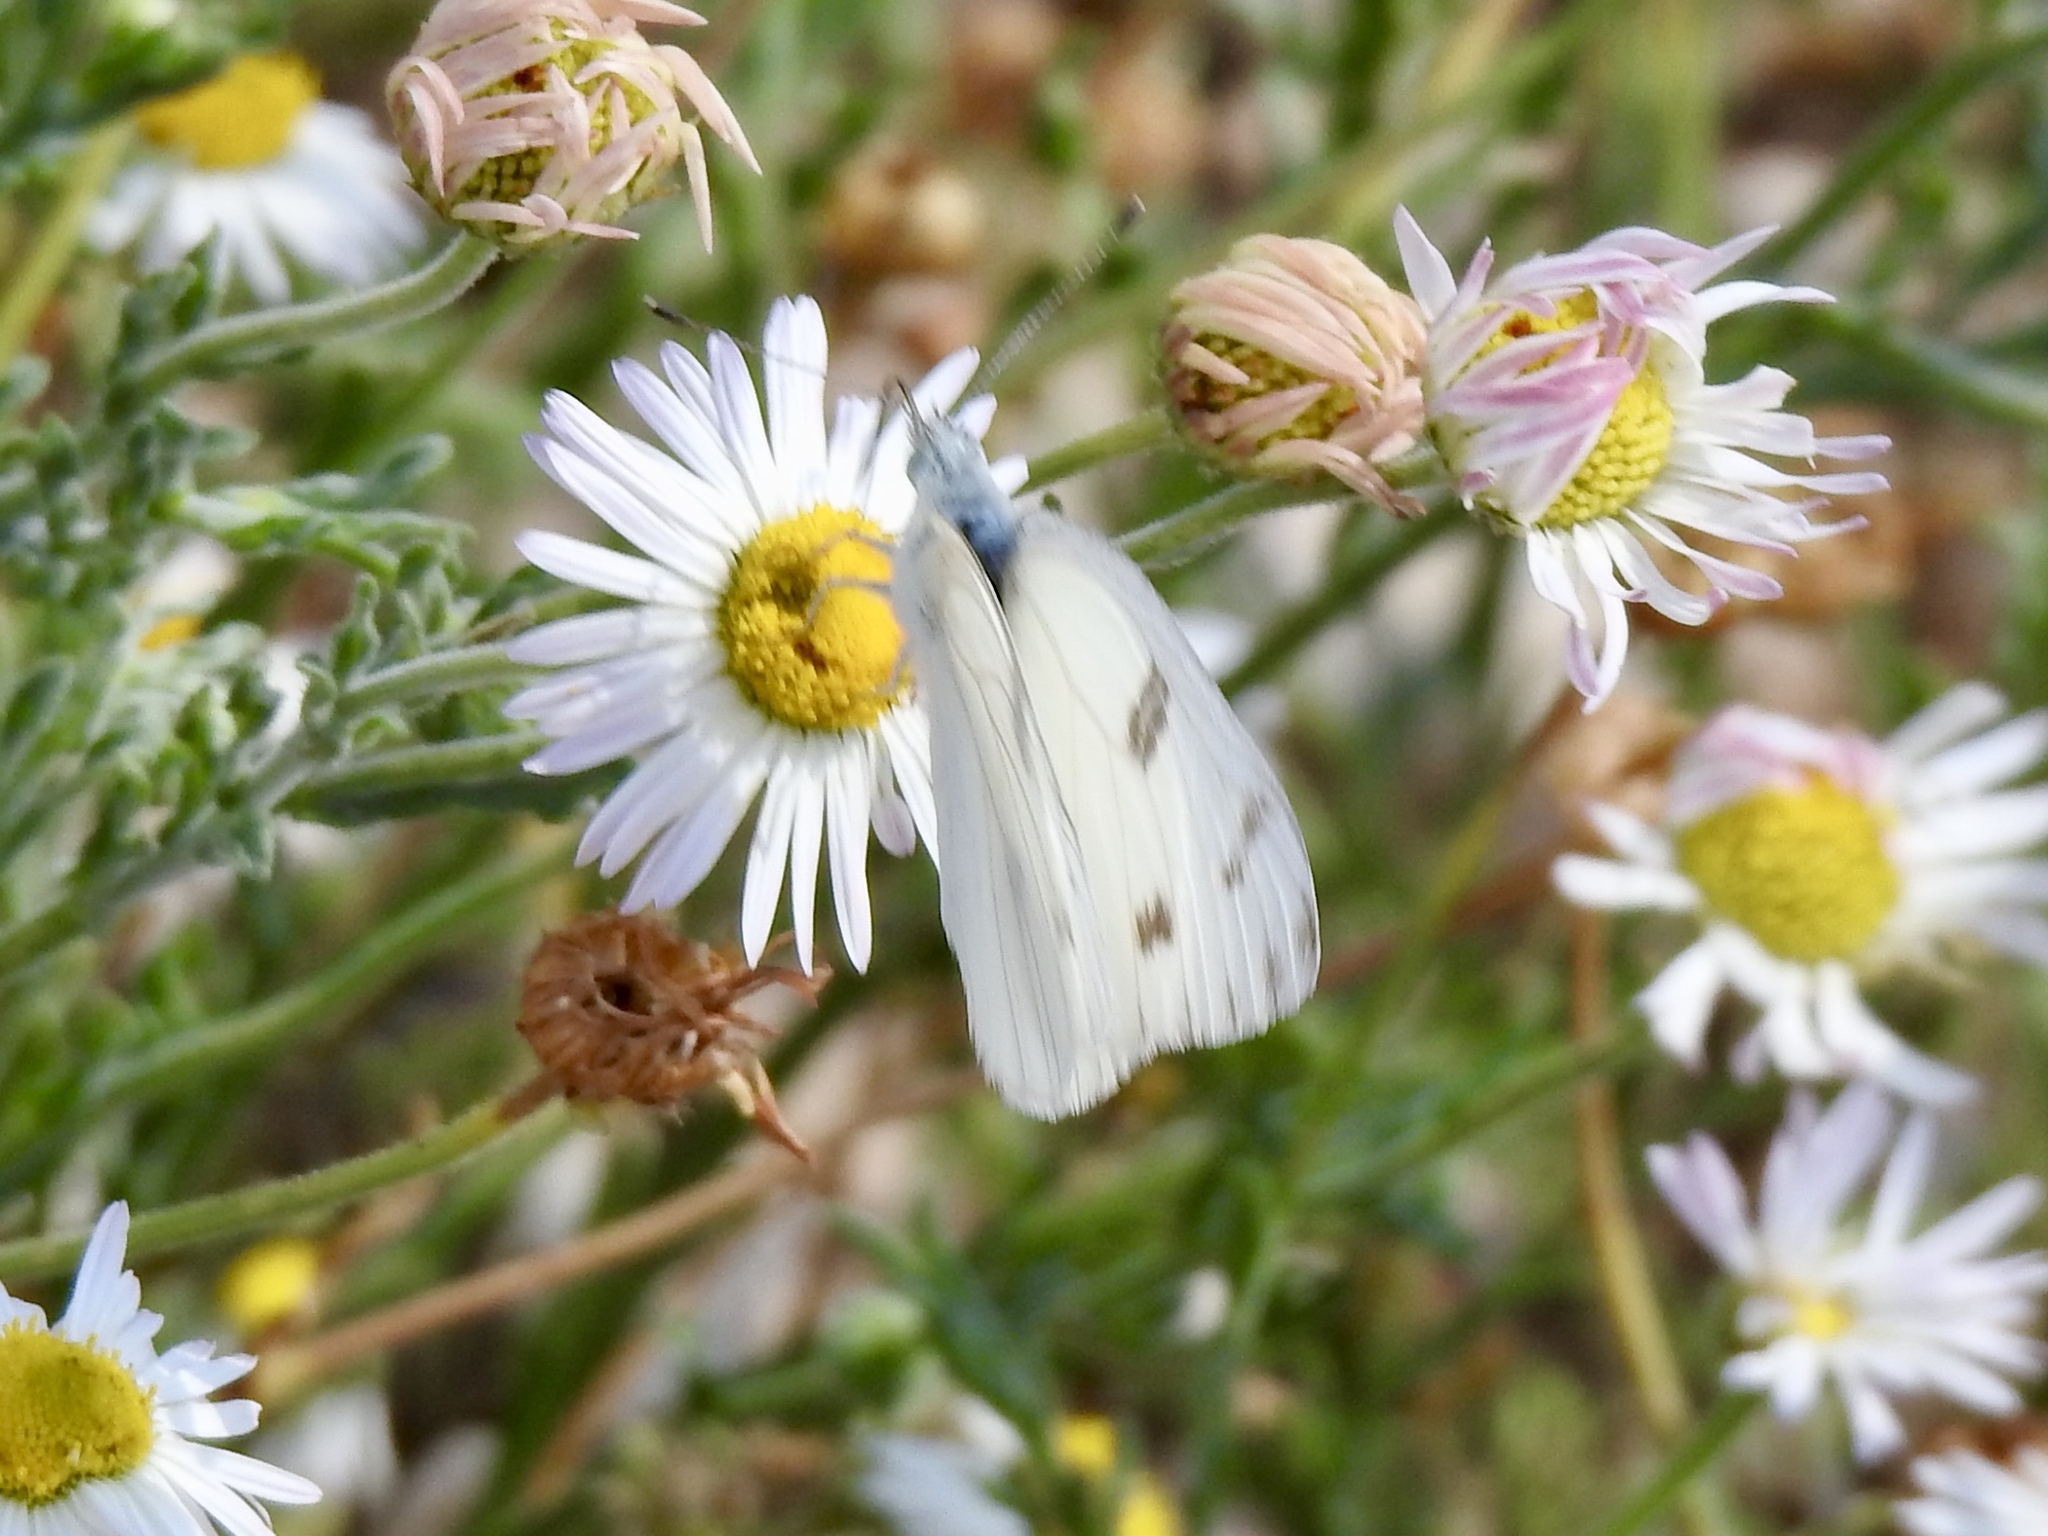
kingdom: Animalia
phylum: Arthropoda
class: Insecta
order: Lepidoptera
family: Pieridae
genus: Pontia
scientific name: Pontia protodice
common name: Checkered white
